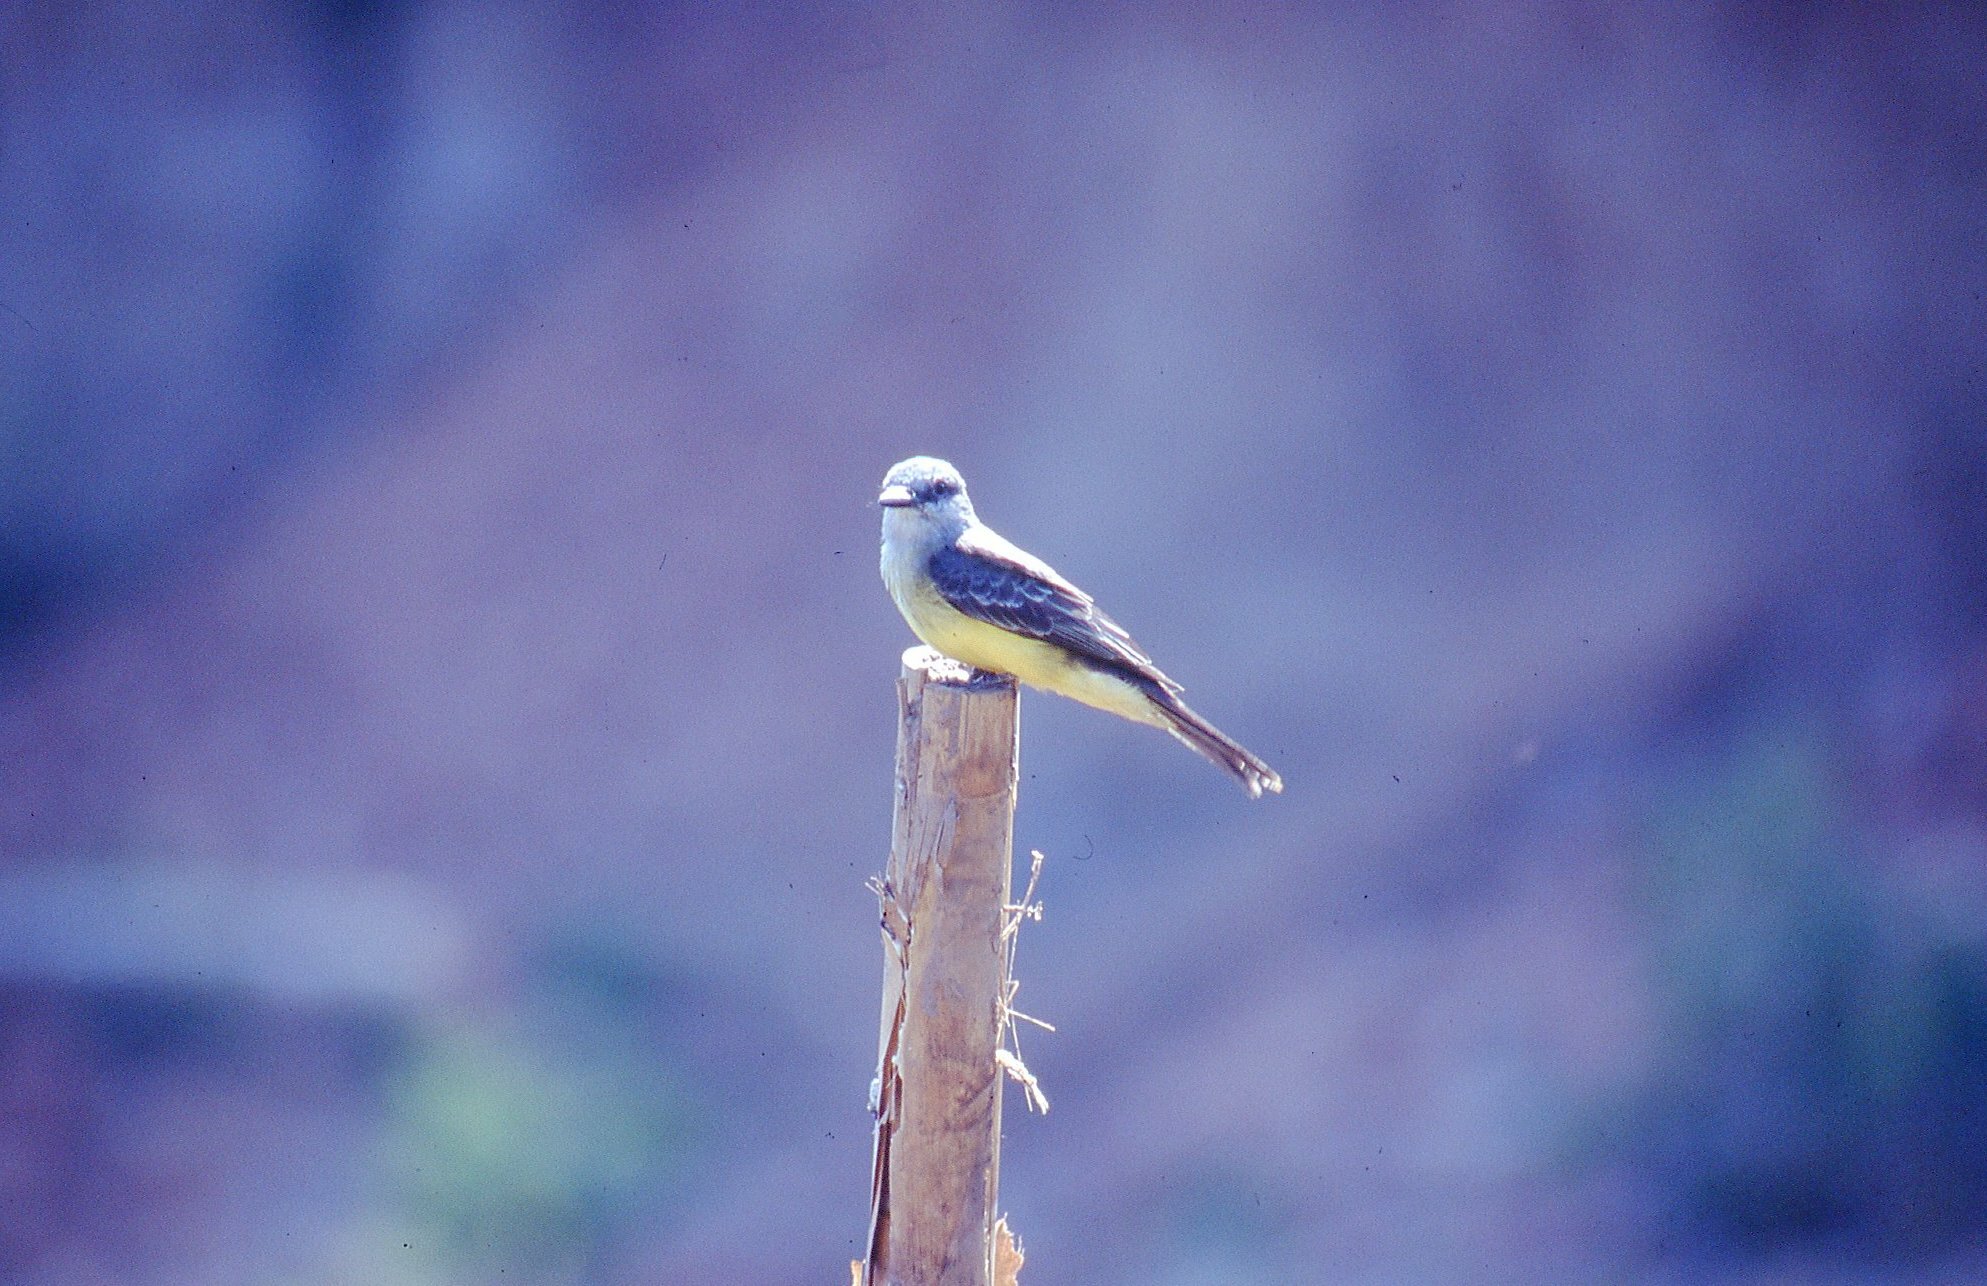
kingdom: Animalia
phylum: Chordata
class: Aves
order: Passeriformes
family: Tyrannidae
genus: Tyrannus
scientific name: Tyrannus melancholicus
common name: Tropical kingbird
